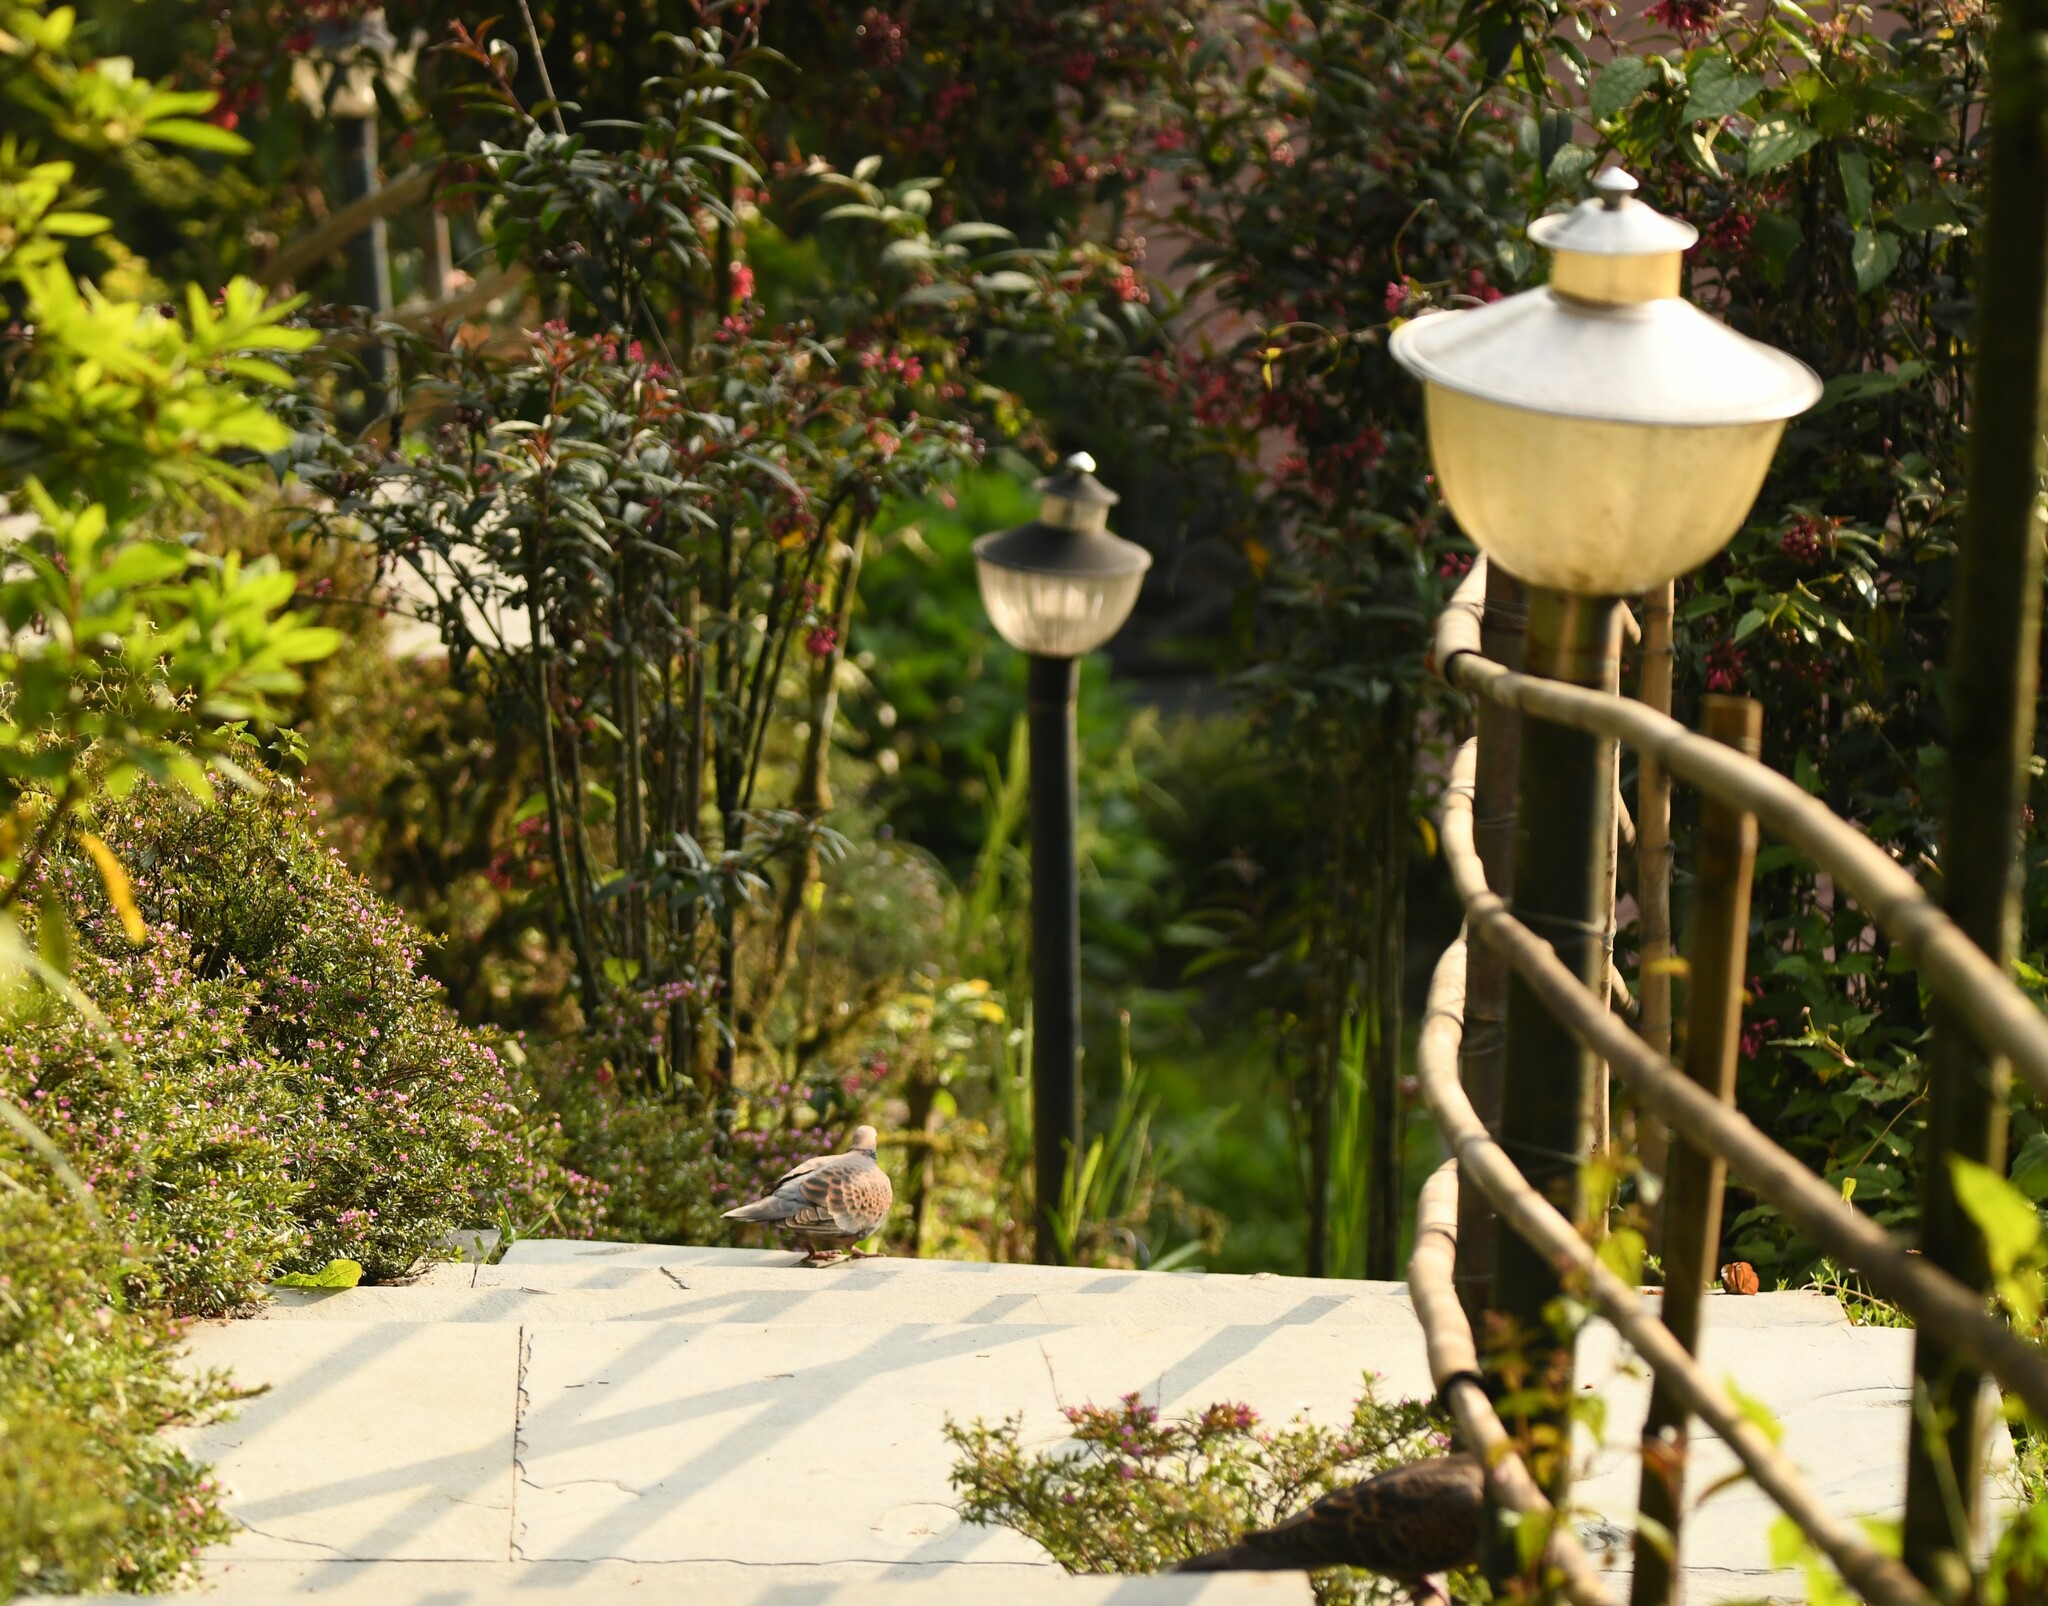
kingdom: Animalia
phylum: Chordata
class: Aves
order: Columbiformes
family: Columbidae
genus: Streptopelia
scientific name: Streptopelia orientalis
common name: Oriental turtle dove
